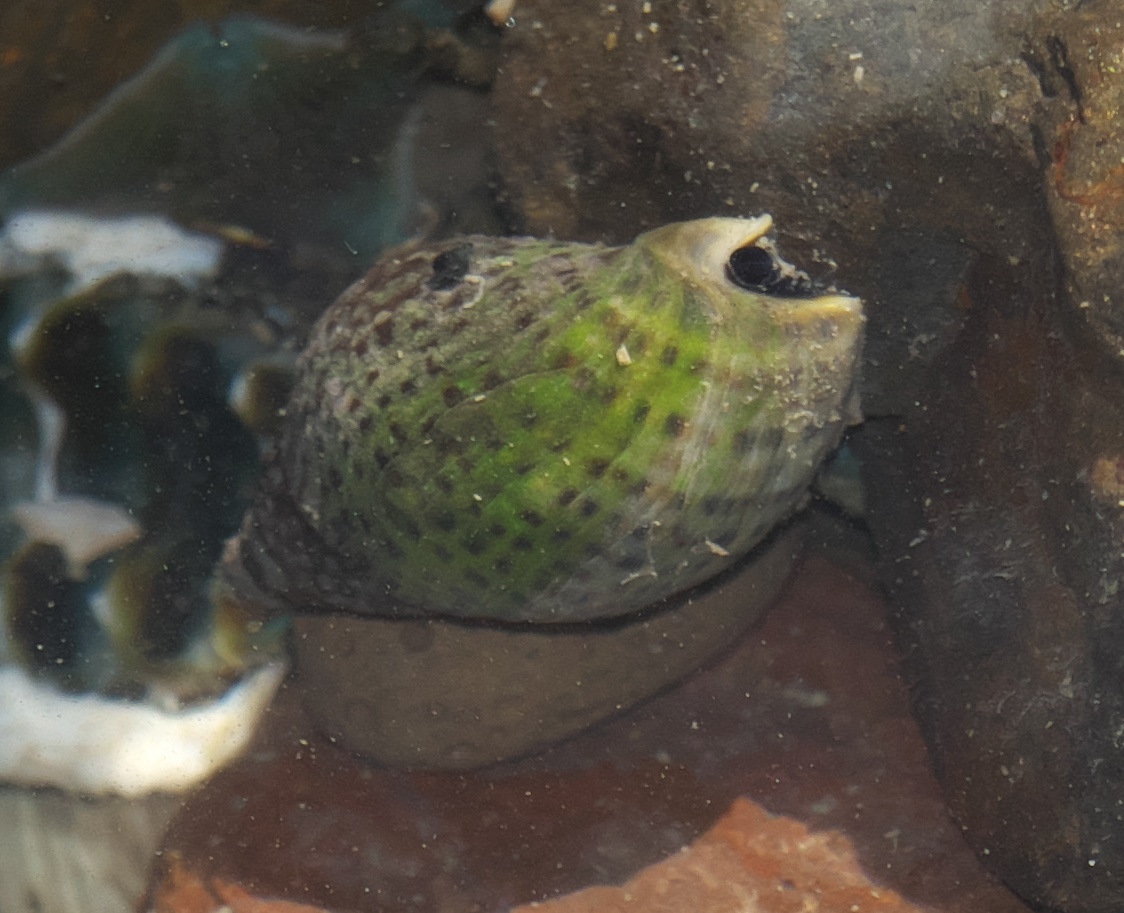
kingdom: Animalia
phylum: Mollusca
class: Gastropoda
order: Neogastropoda
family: Cominellidae
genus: Cominella
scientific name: Cominella maculosa
